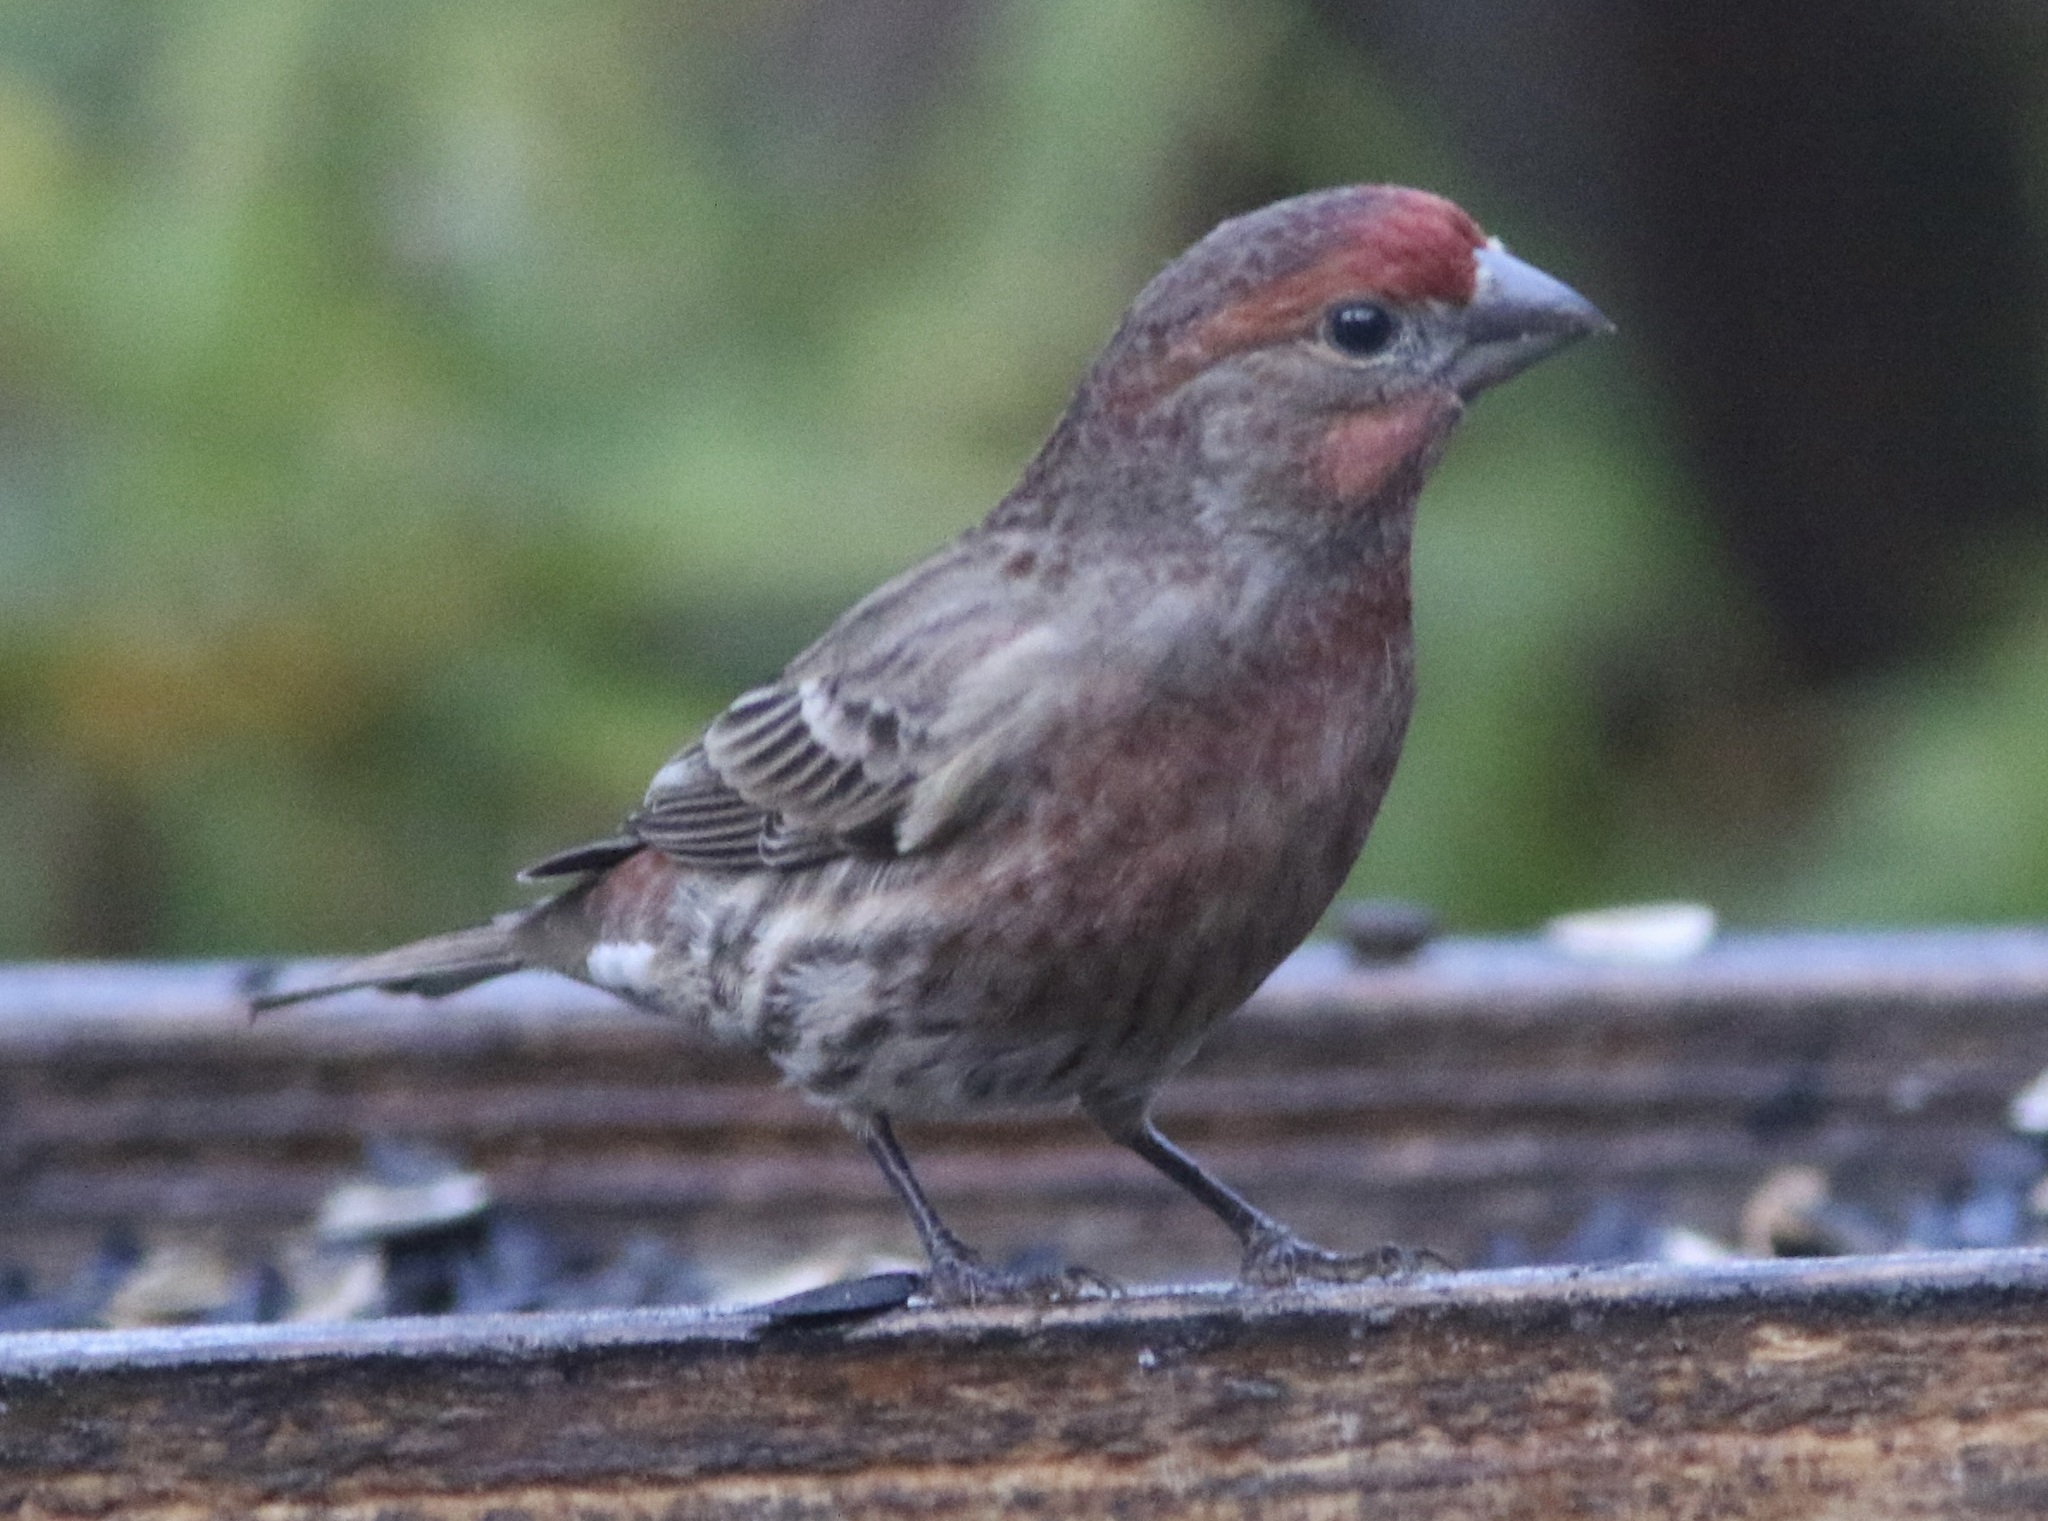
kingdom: Animalia
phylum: Chordata
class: Aves
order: Passeriformes
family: Fringillidae
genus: Haemorhous
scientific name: Haemorhous mexicanus
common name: House finch
